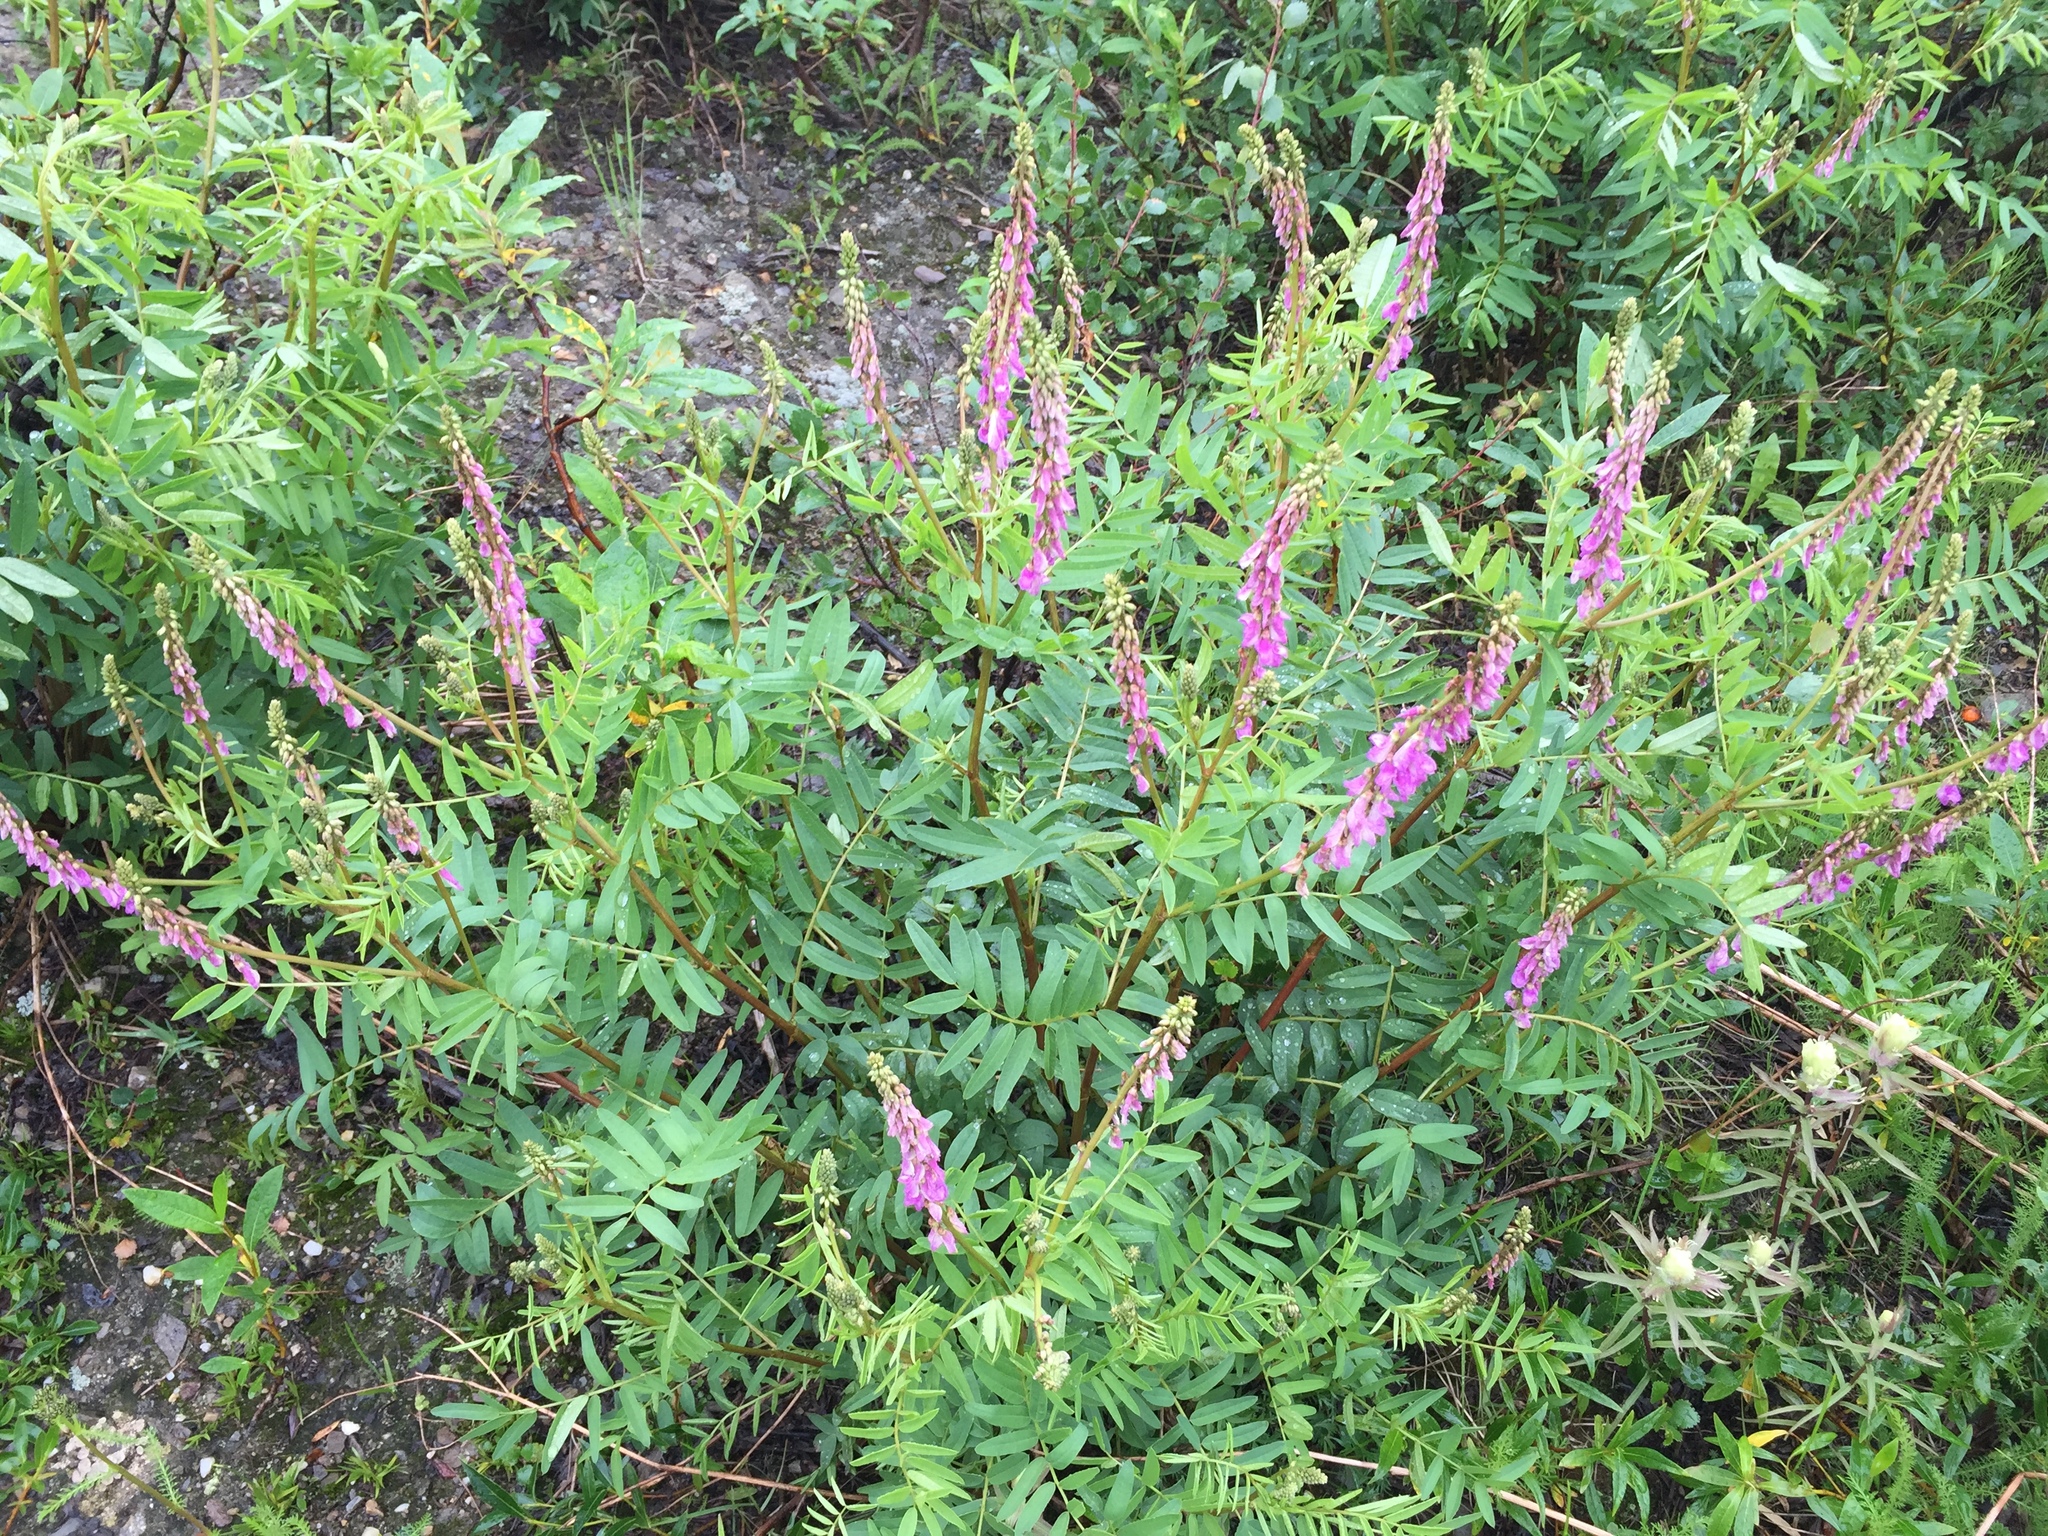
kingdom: Plantae
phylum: Tracheophyta
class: Magnoliopsida
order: Fabales
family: Fabaceae
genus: Hedysarum
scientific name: Hedysarum alpinum
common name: Alpine sweet-vetch
